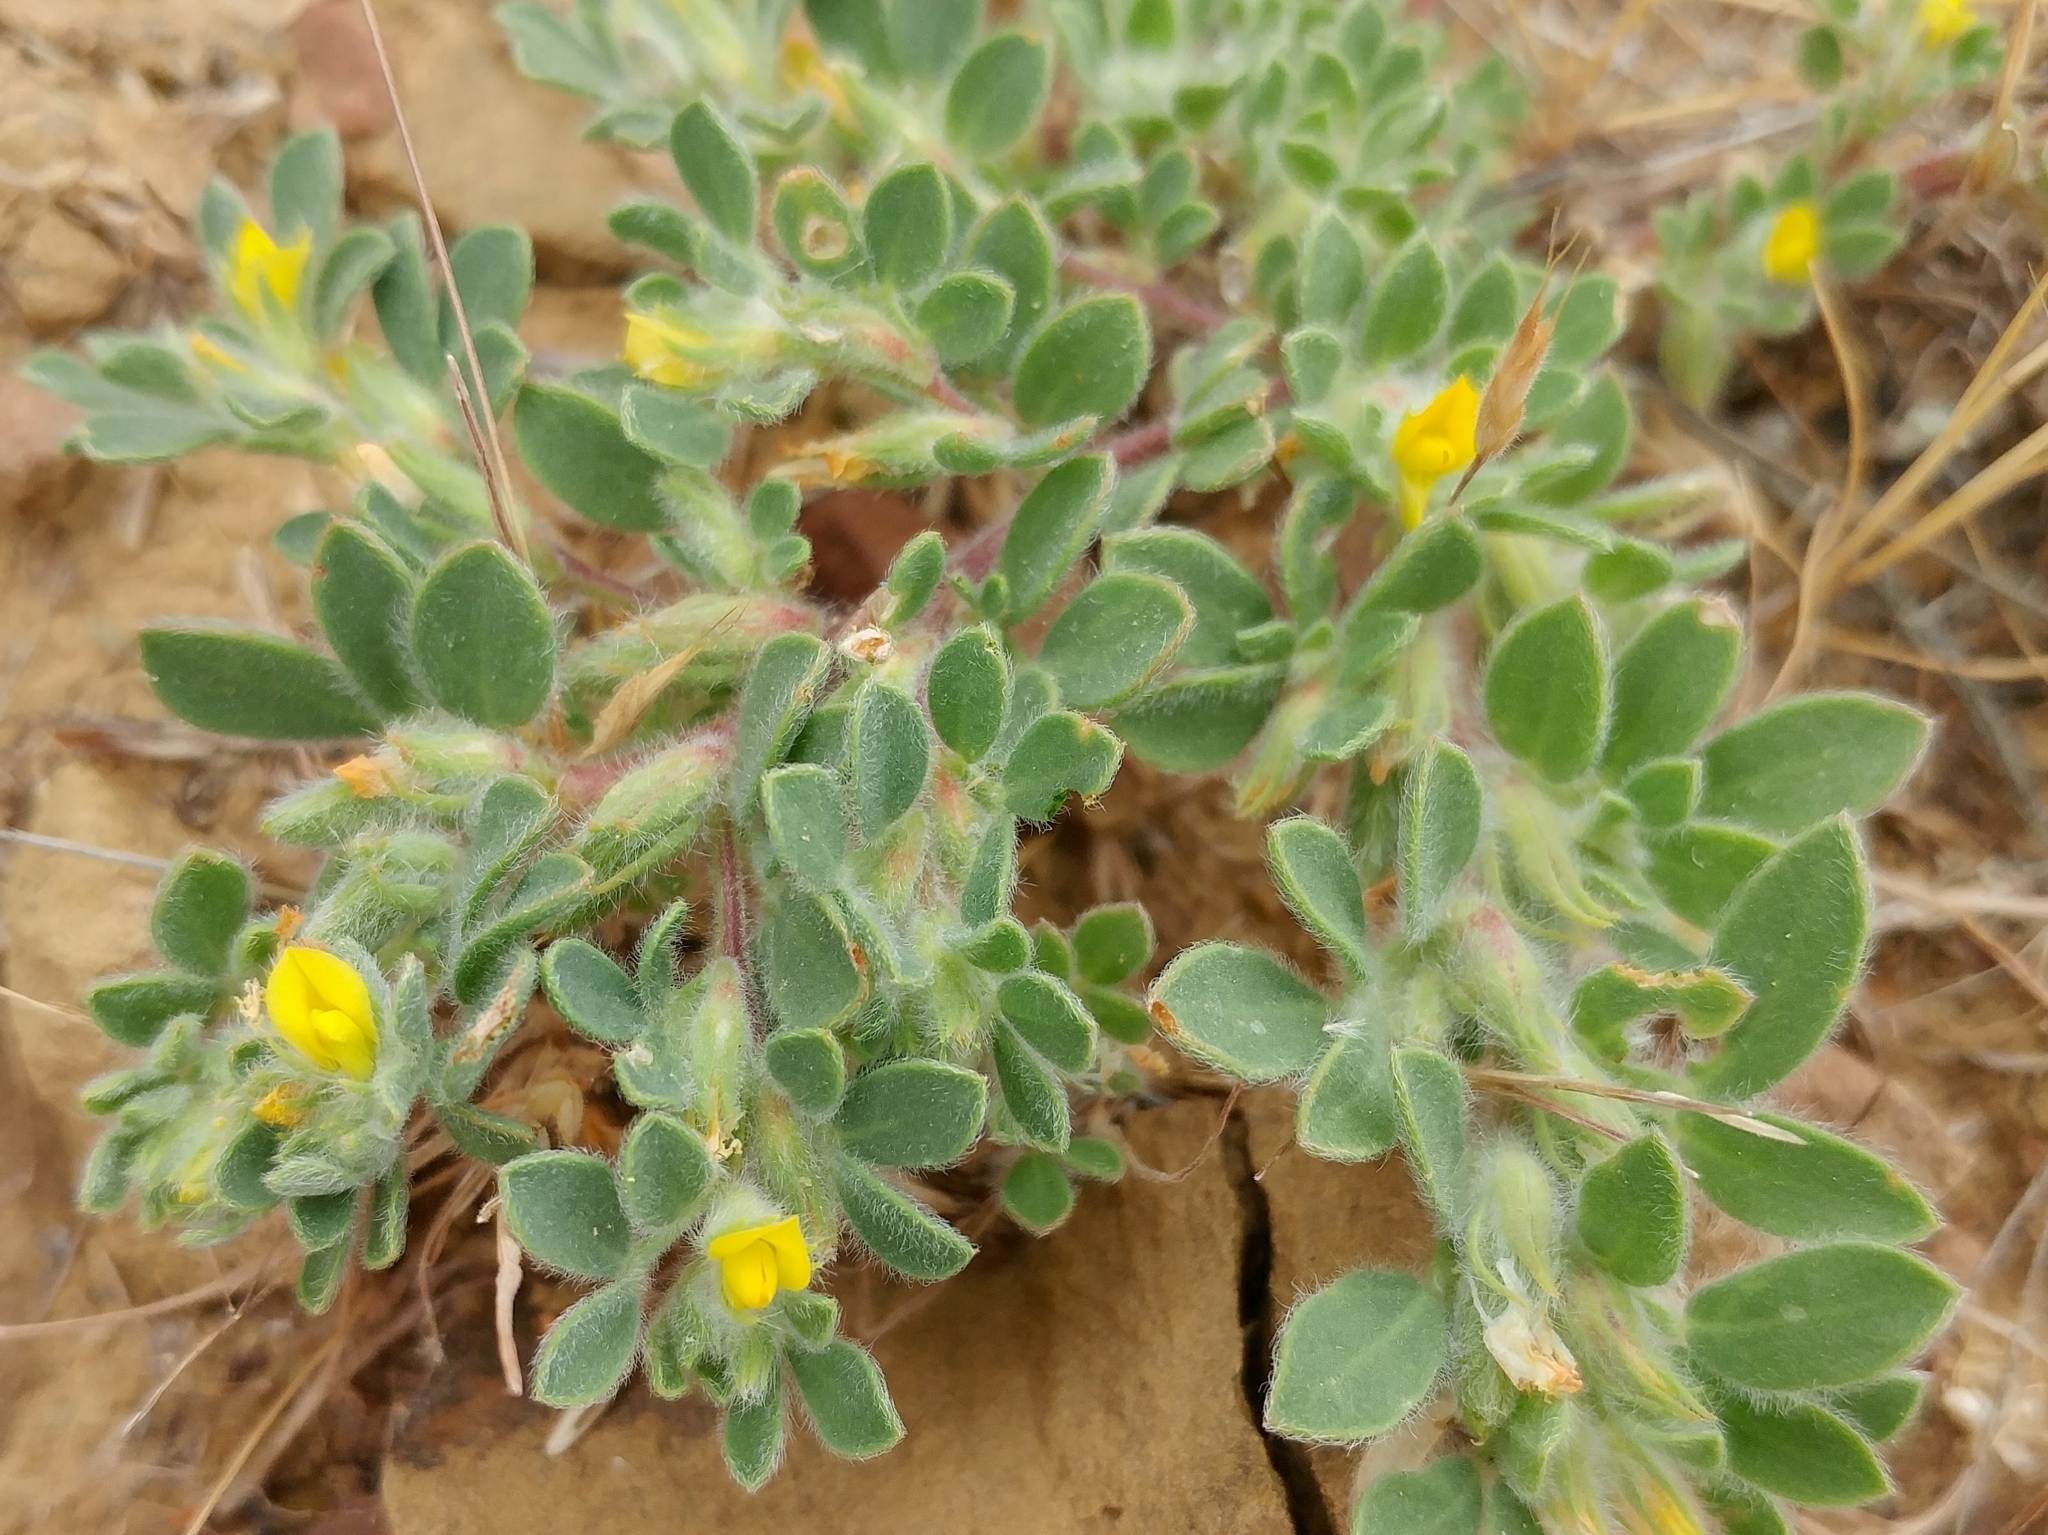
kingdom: Plantae
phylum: Tracheophyta
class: Magnoliopsida
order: Fabales
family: Fabaceae
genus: Acmispon
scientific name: Acmispon brachycarpus
